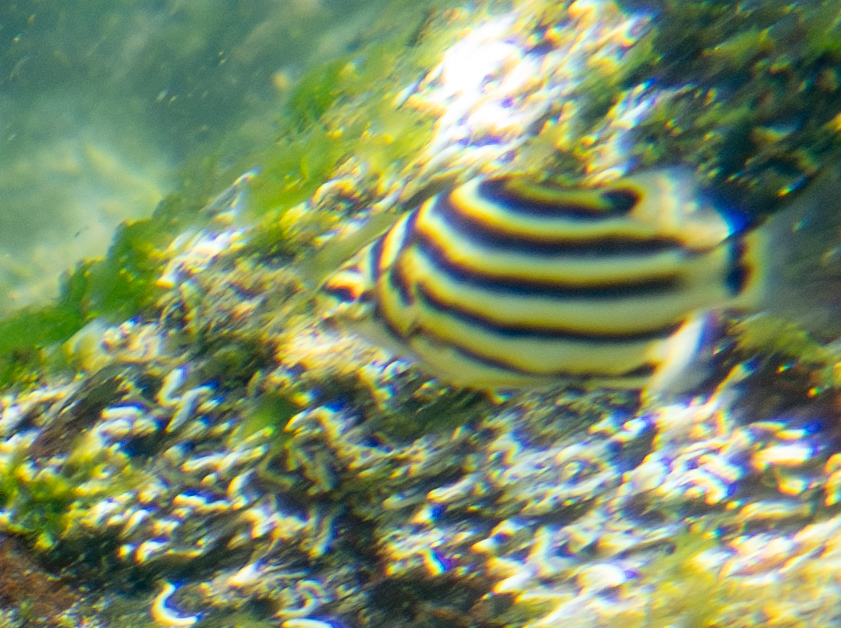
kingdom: Animalia
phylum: Chordata
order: Perciformes
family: Kyphosidae
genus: Microcanthus
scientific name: Microcanthus joyceae
